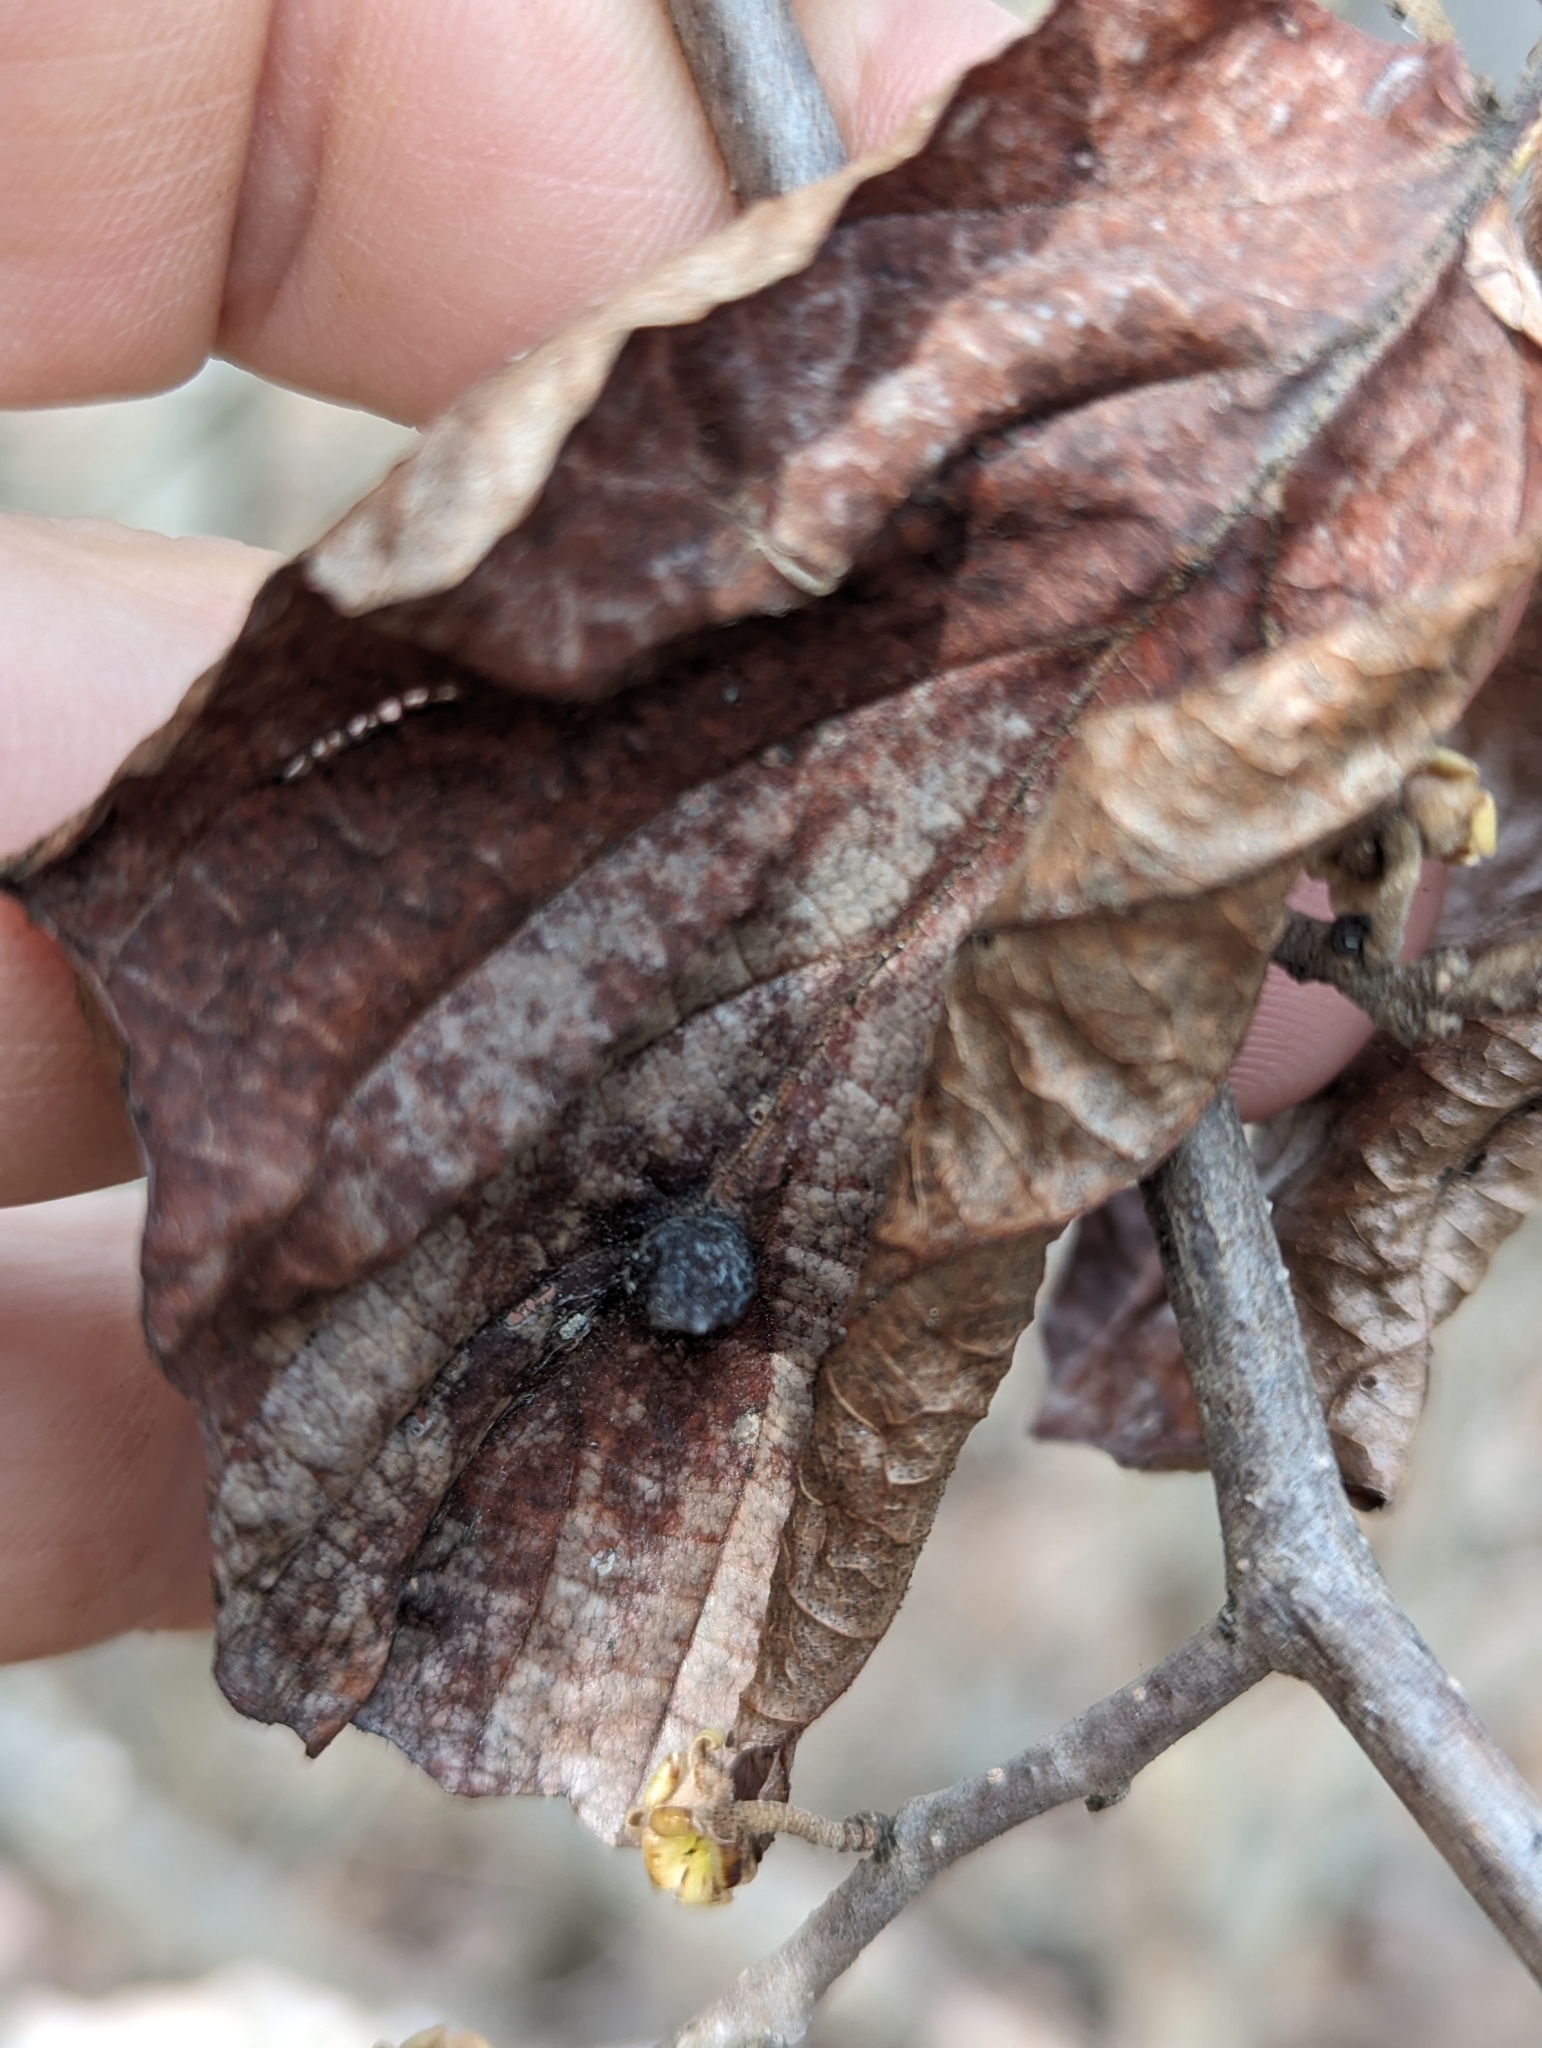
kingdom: Animalia
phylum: Arthropoda
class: Insecta
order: Hemiptera
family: Aphididae
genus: Hormaphis
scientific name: Hormaphis hamamelidis
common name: Witch-hazel cone gall aphid
